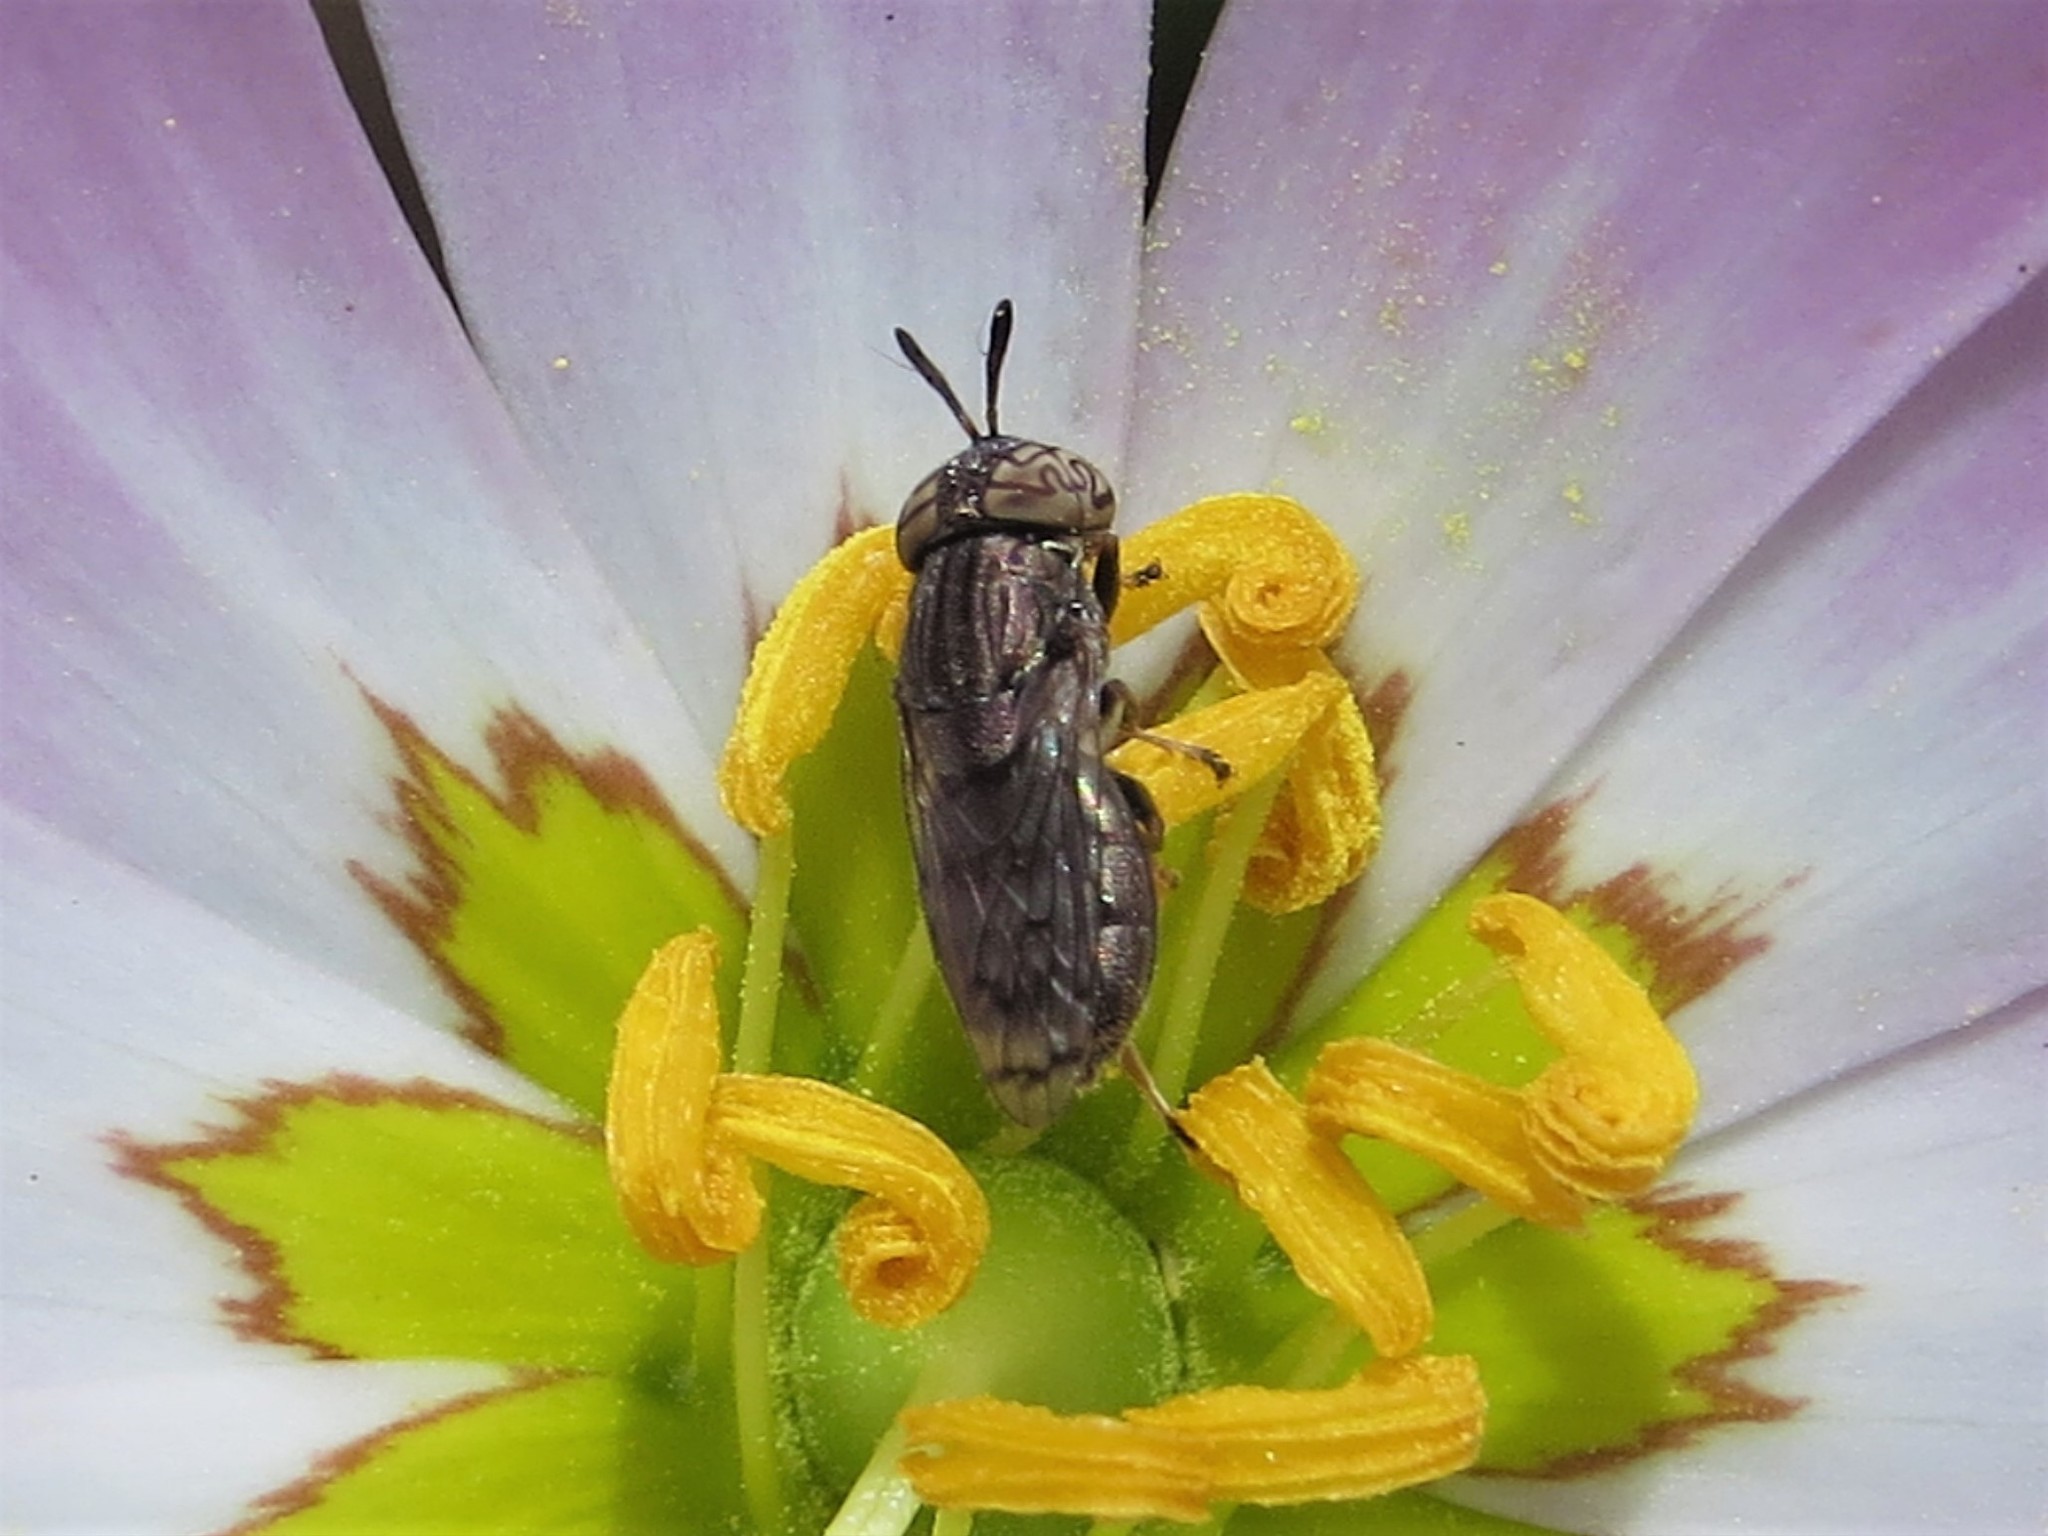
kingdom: Animalia
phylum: Arthropoda
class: Insecta
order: Diptera
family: Syrphidae
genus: Orthonevra
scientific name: Orthonevra nitida
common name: Wavy mucksucker
